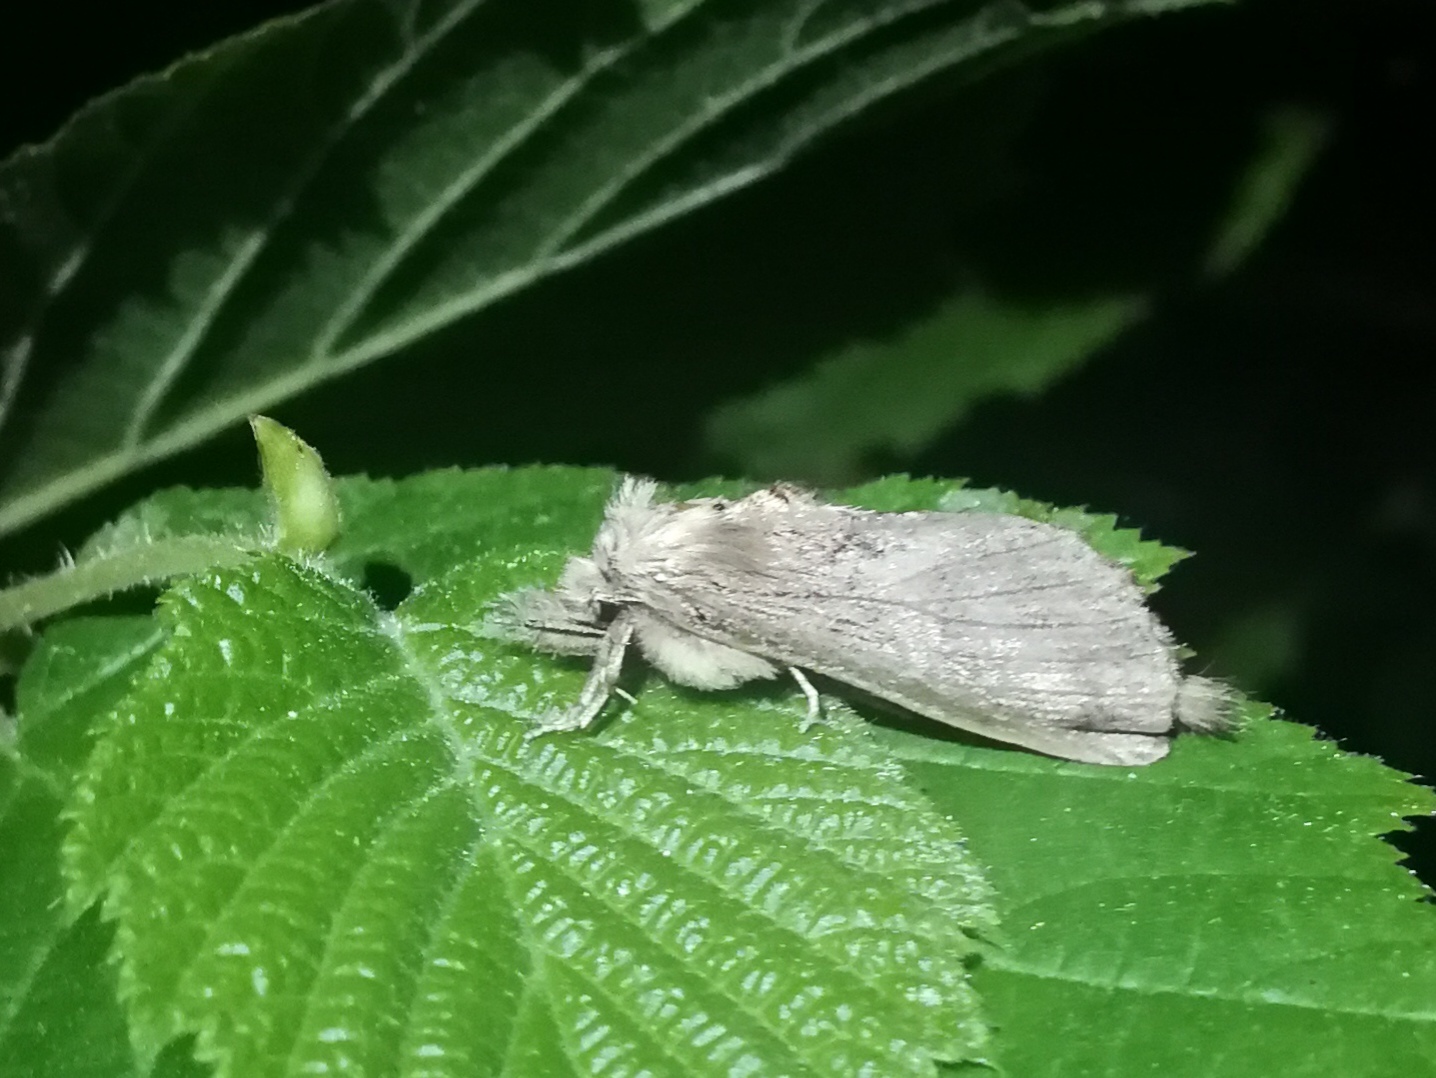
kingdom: Animalia
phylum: Arthropoda
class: Insecta
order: Lepidoptera
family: Notodontidae
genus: Pterostoma
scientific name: Pterostoma palpina
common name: Pale prominent
